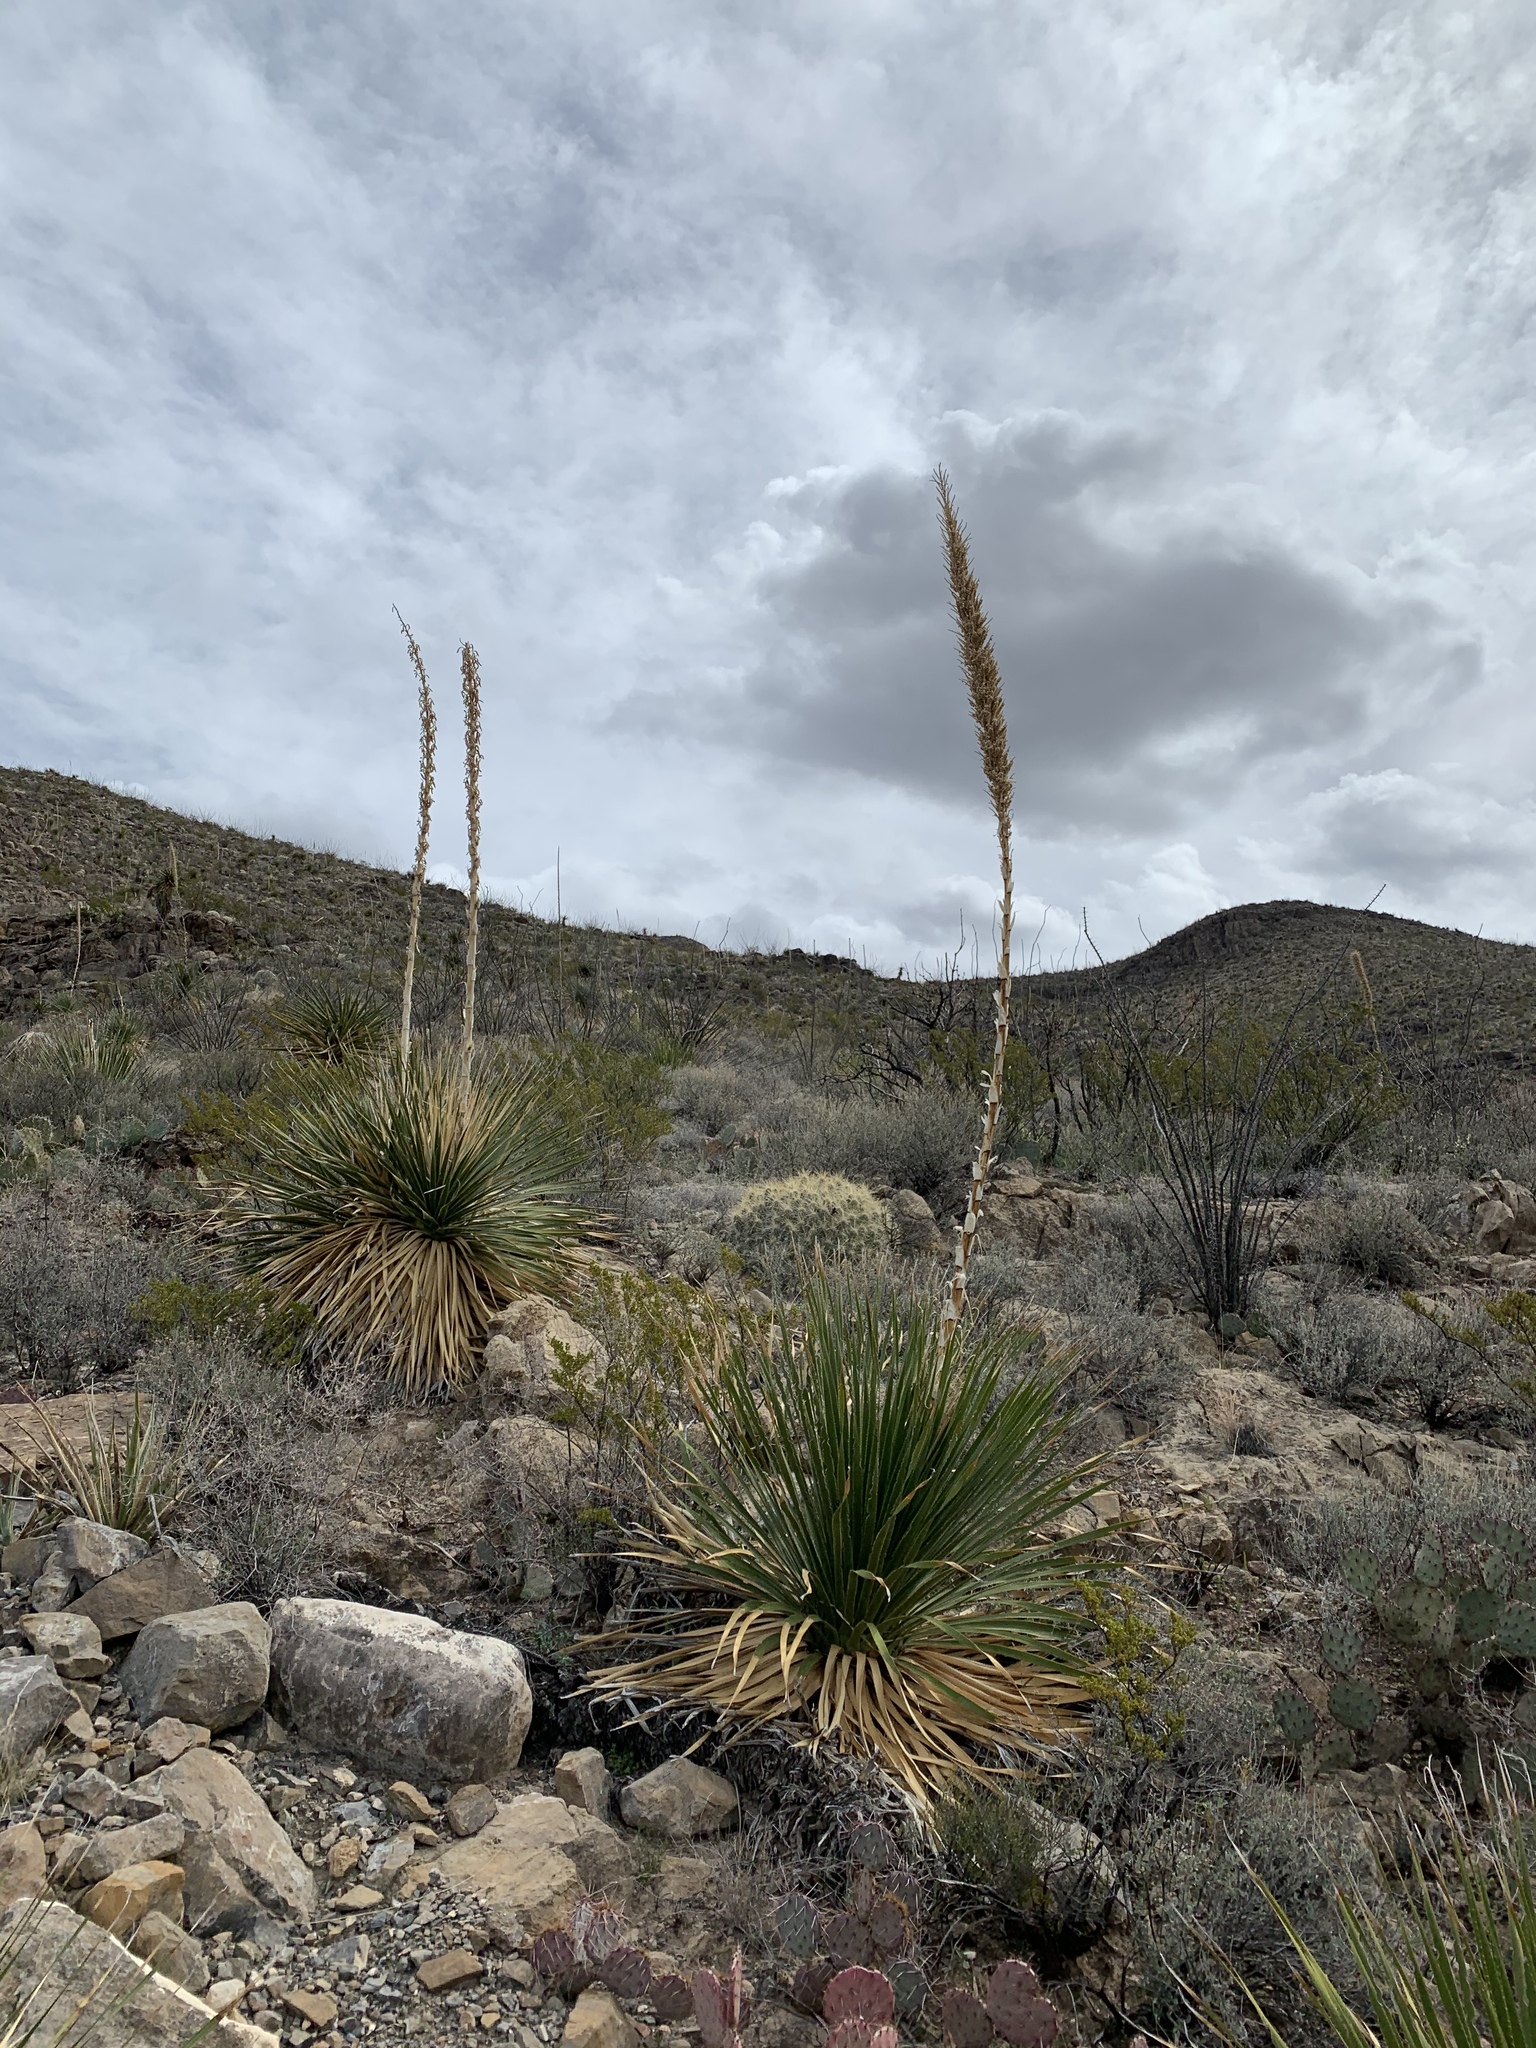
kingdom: Plantae
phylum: Tracheophyta
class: Liliopsida
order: Asparagales
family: Asparagaceae
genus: Dasylirion
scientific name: Dasylirion wheeleri
